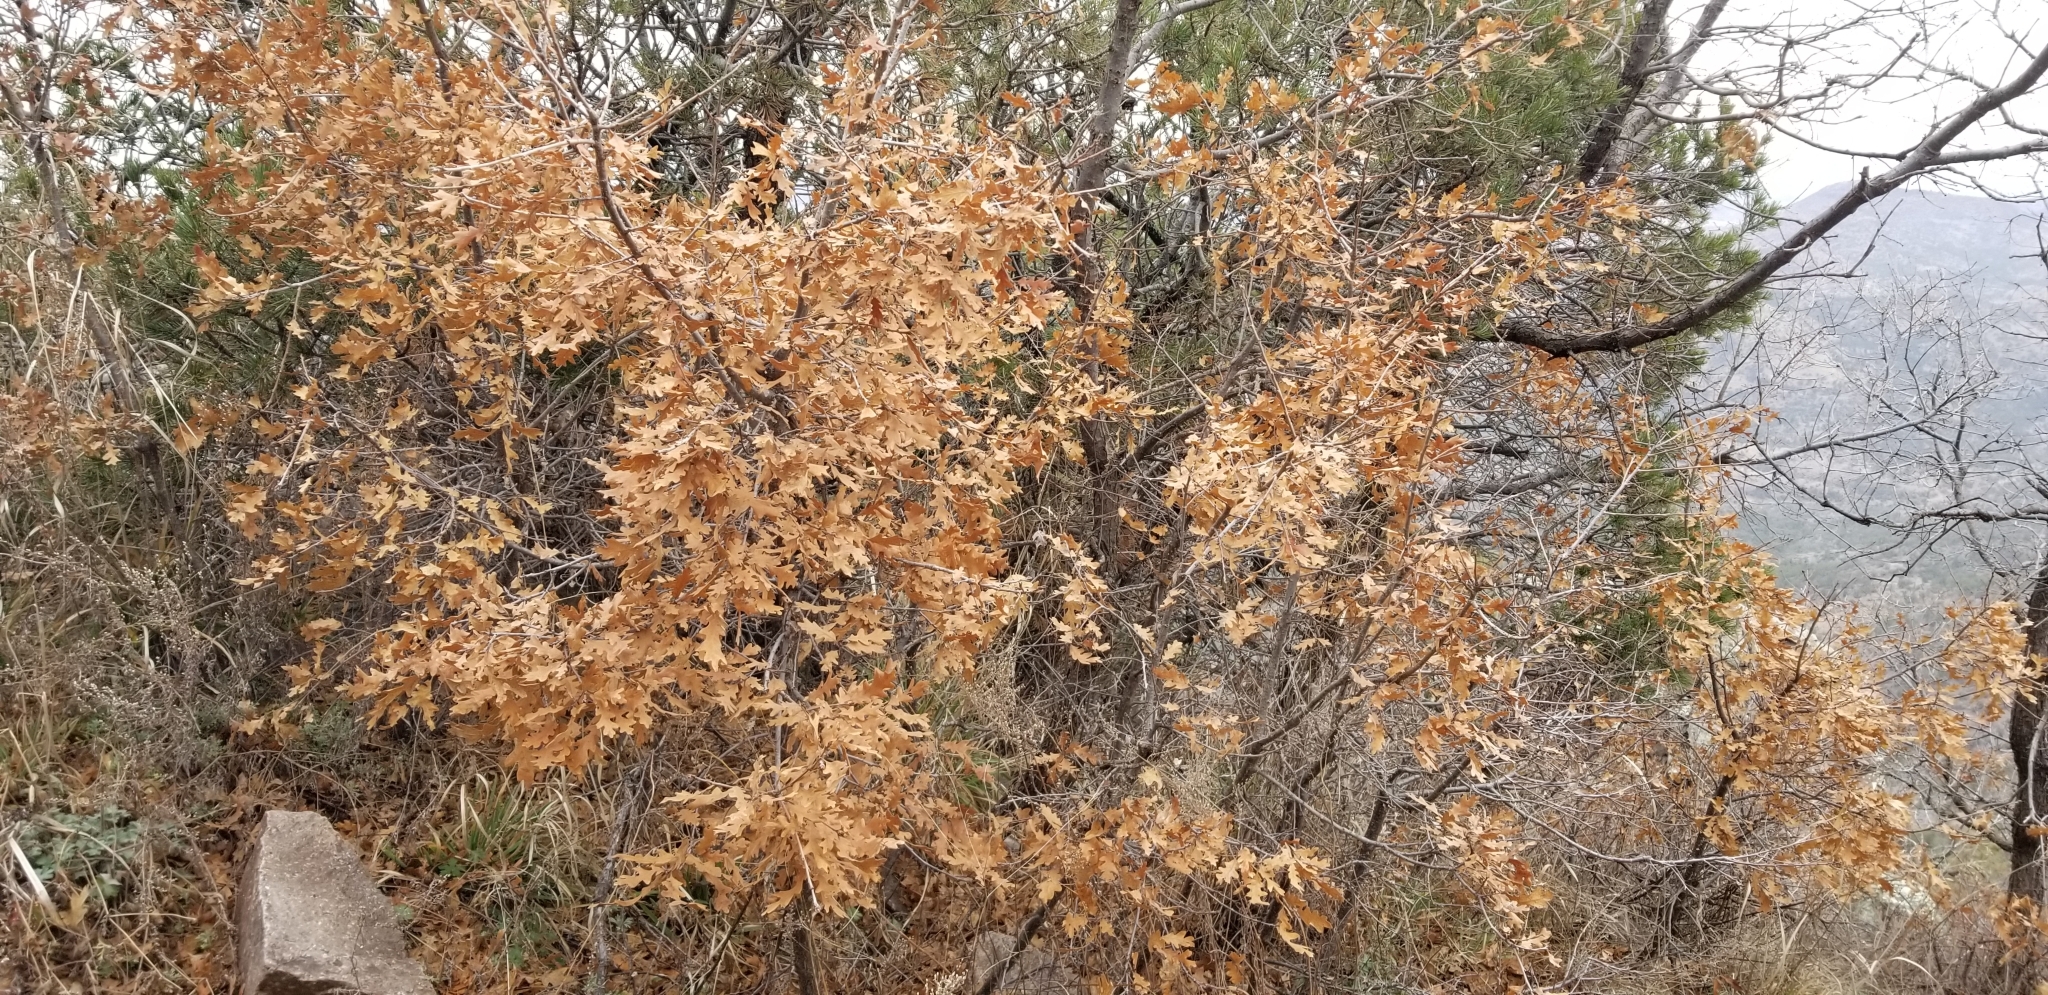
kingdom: Plantae
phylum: Tracheophyta
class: Magnoliopsida
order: Fagales
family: Fagaceae
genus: Quercus
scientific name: Quercus gambelii
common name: Gambel oak
